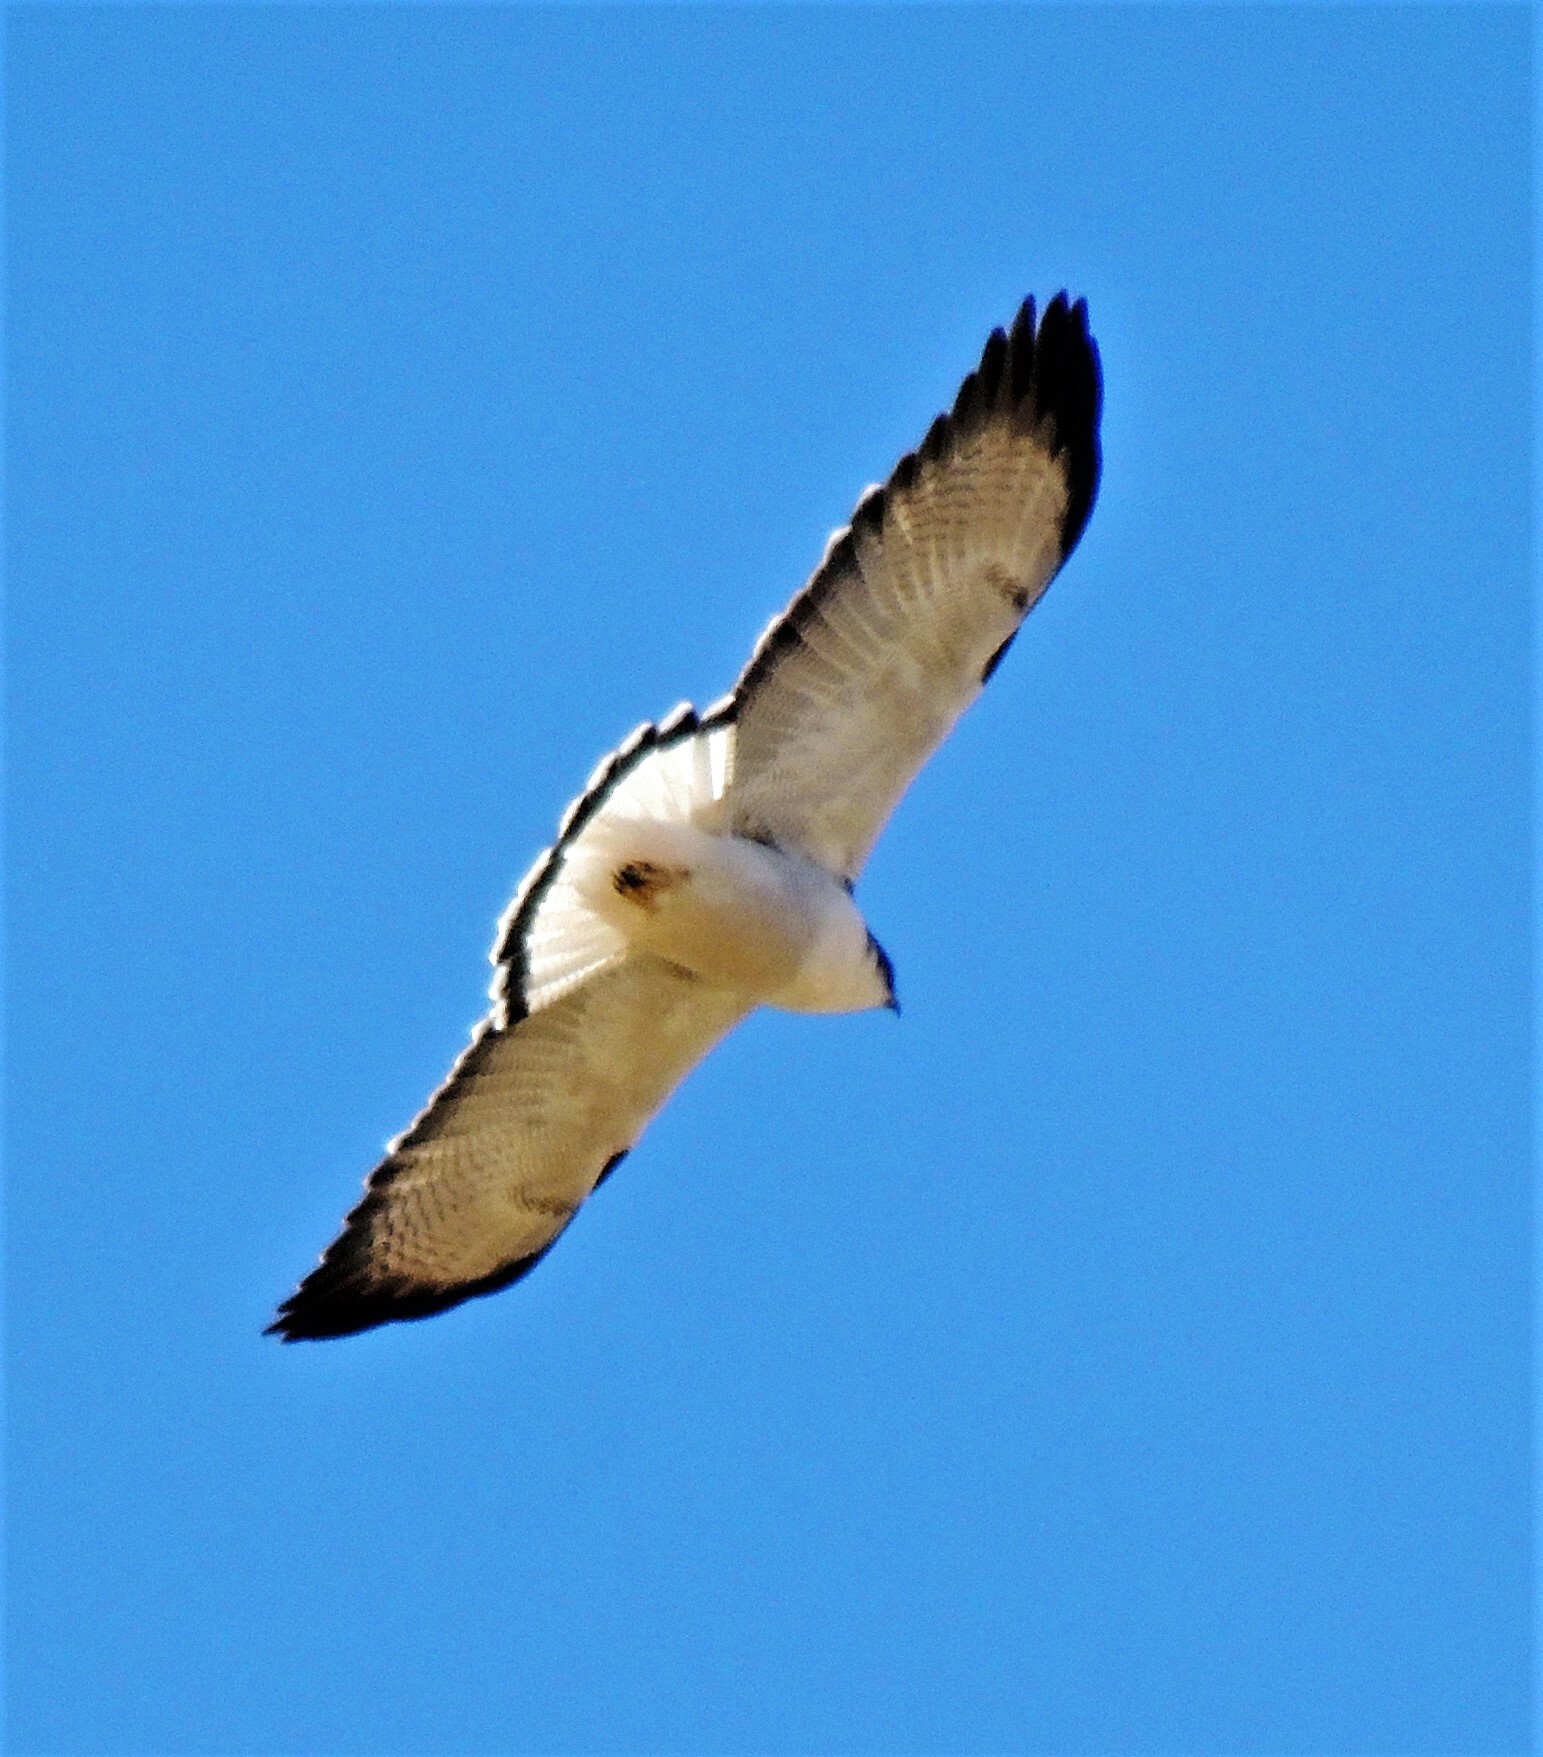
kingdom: Animalia
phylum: Chordata
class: Aves
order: Accipitriformes
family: Accipitridae
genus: Buteo
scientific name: Buteo polyosoma
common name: Variable hawk
